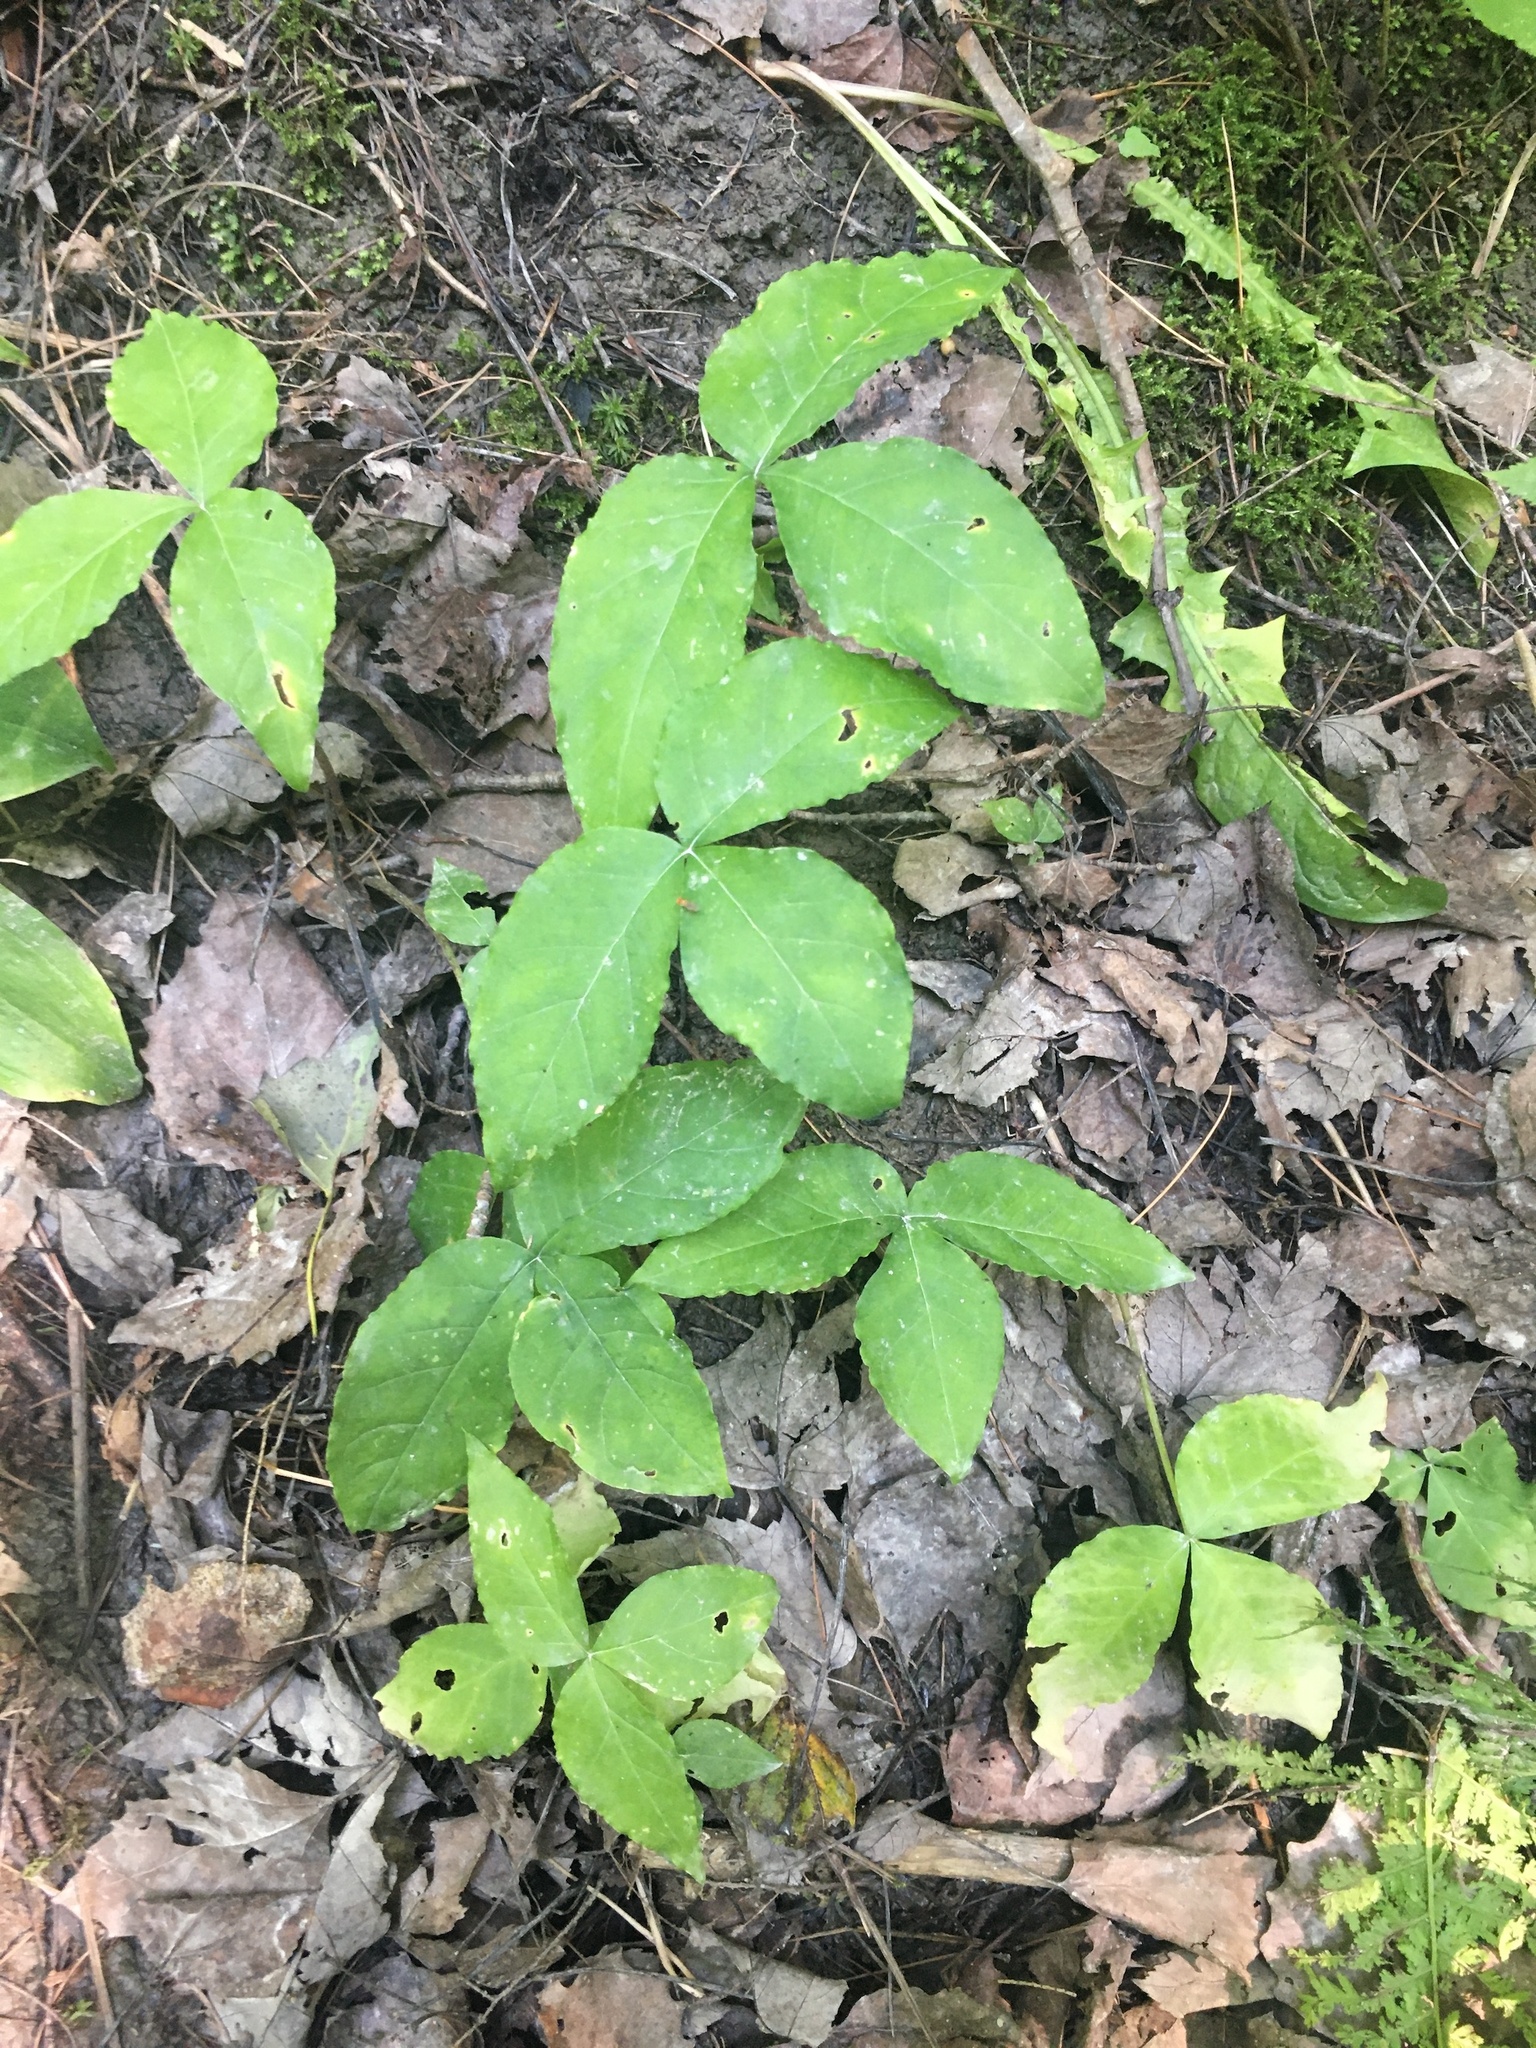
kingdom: Plantae
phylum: Tracheophyta
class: Liliopsida
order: Alismatales
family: Araceae
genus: Arisaema
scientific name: Arisaema triphyllum
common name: Jack-in-the-pulpit
